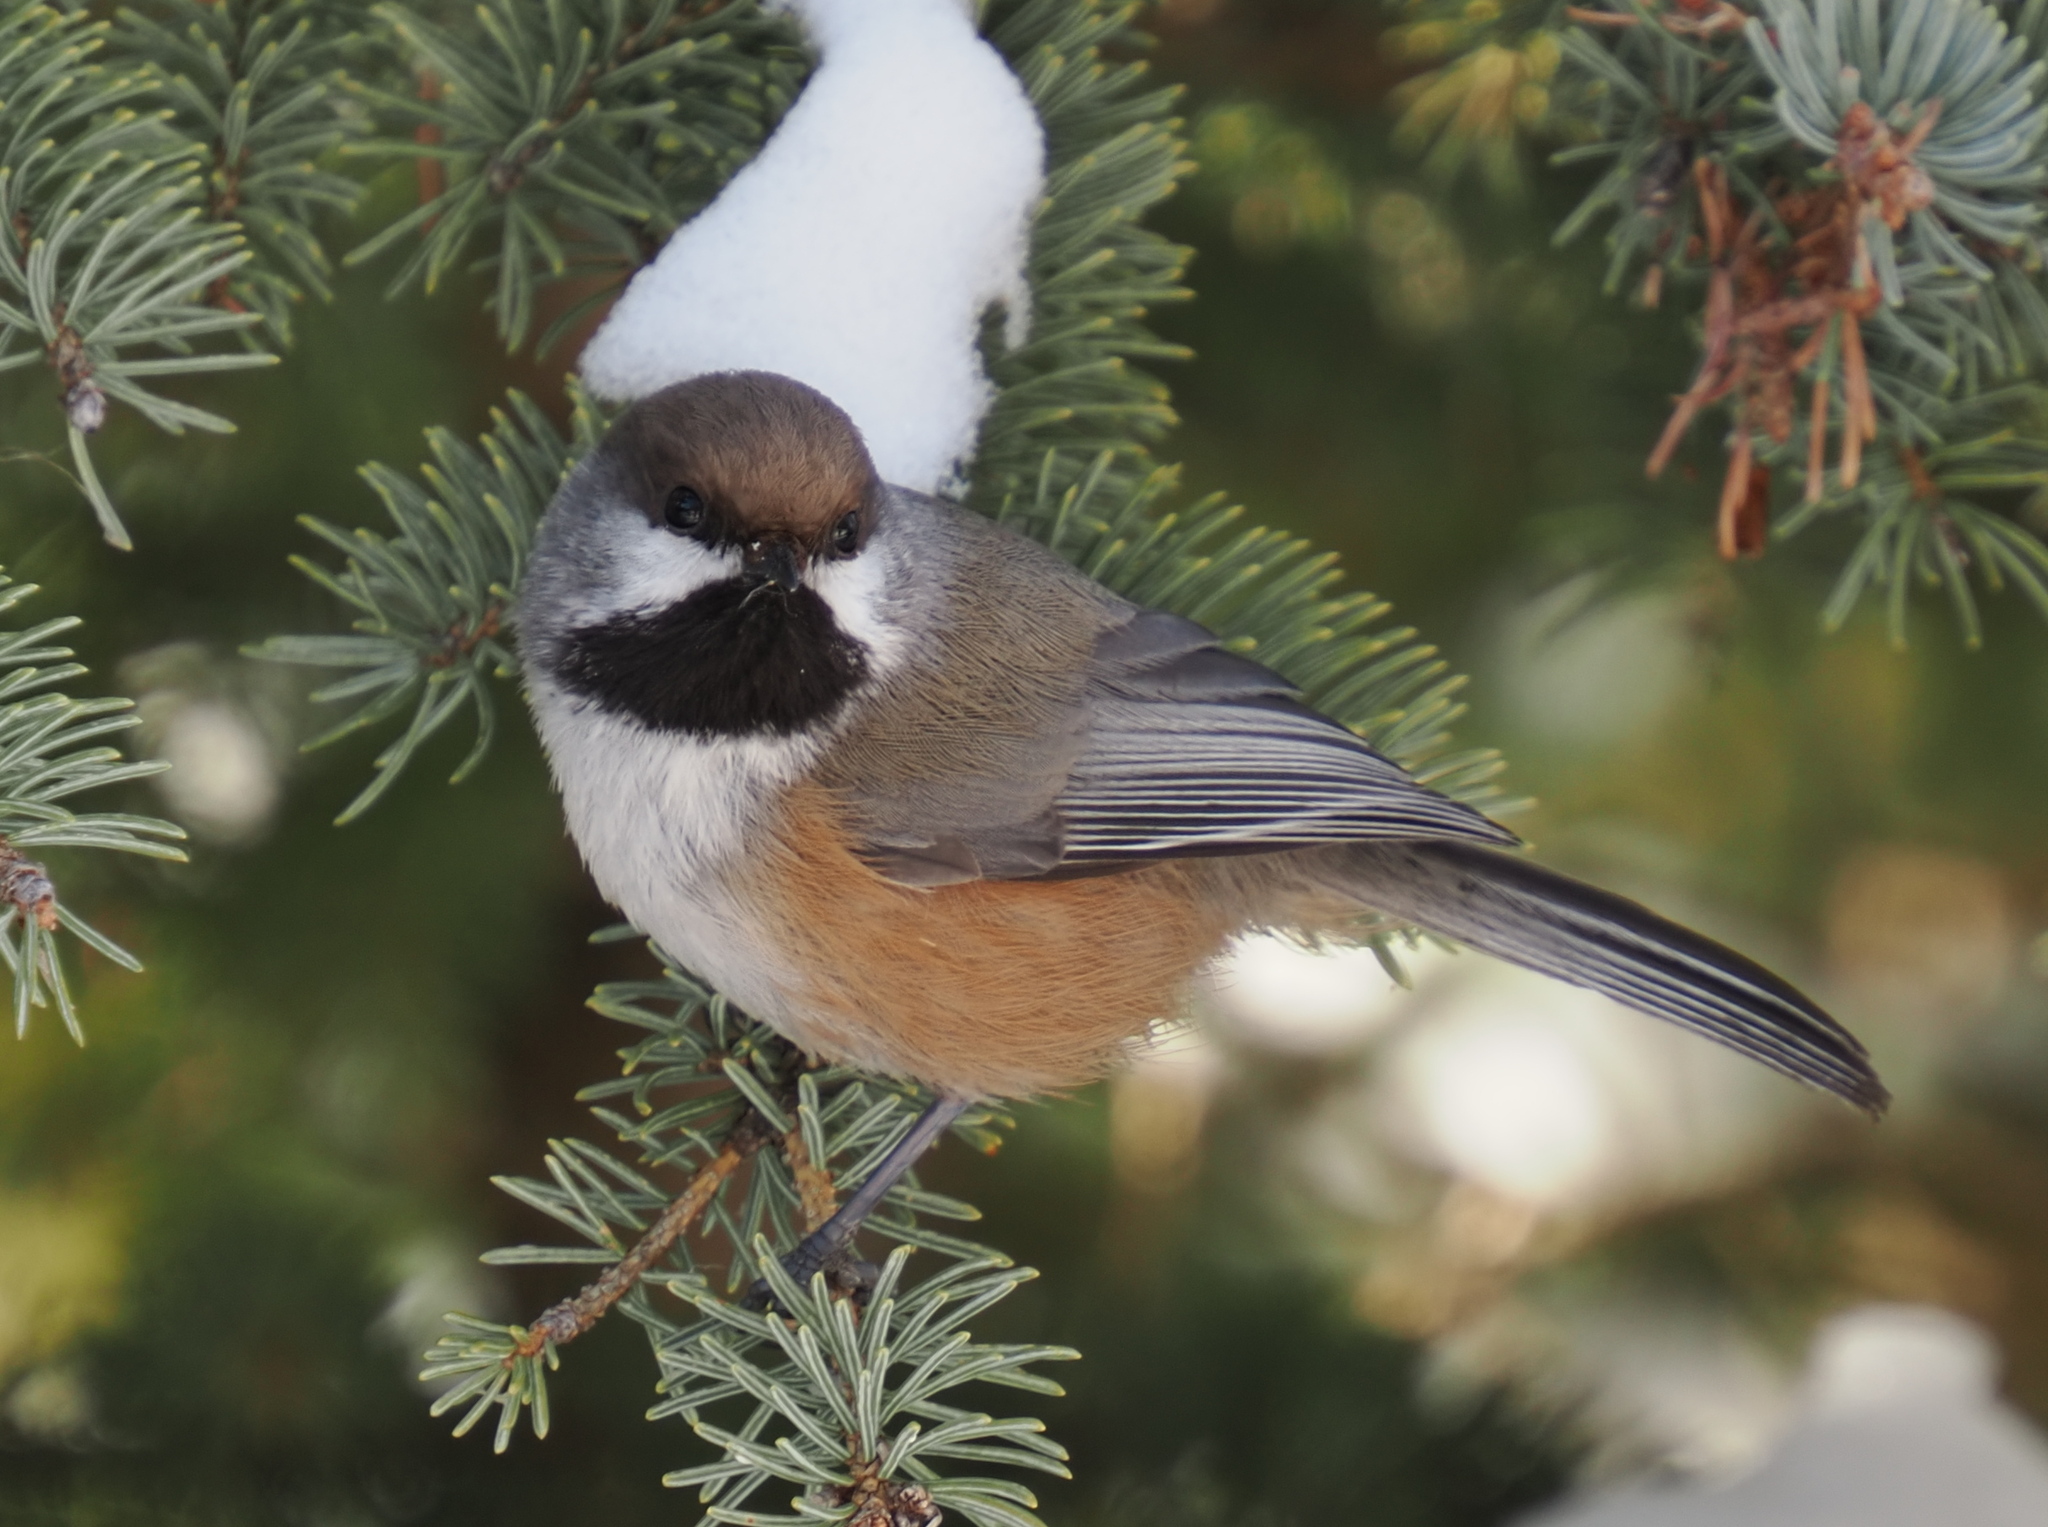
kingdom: Animalia
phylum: Chordata
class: Aves
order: Passeriformes
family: Paridae
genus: Poecile
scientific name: Poecile hudsonicus
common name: Boreal chickadee
